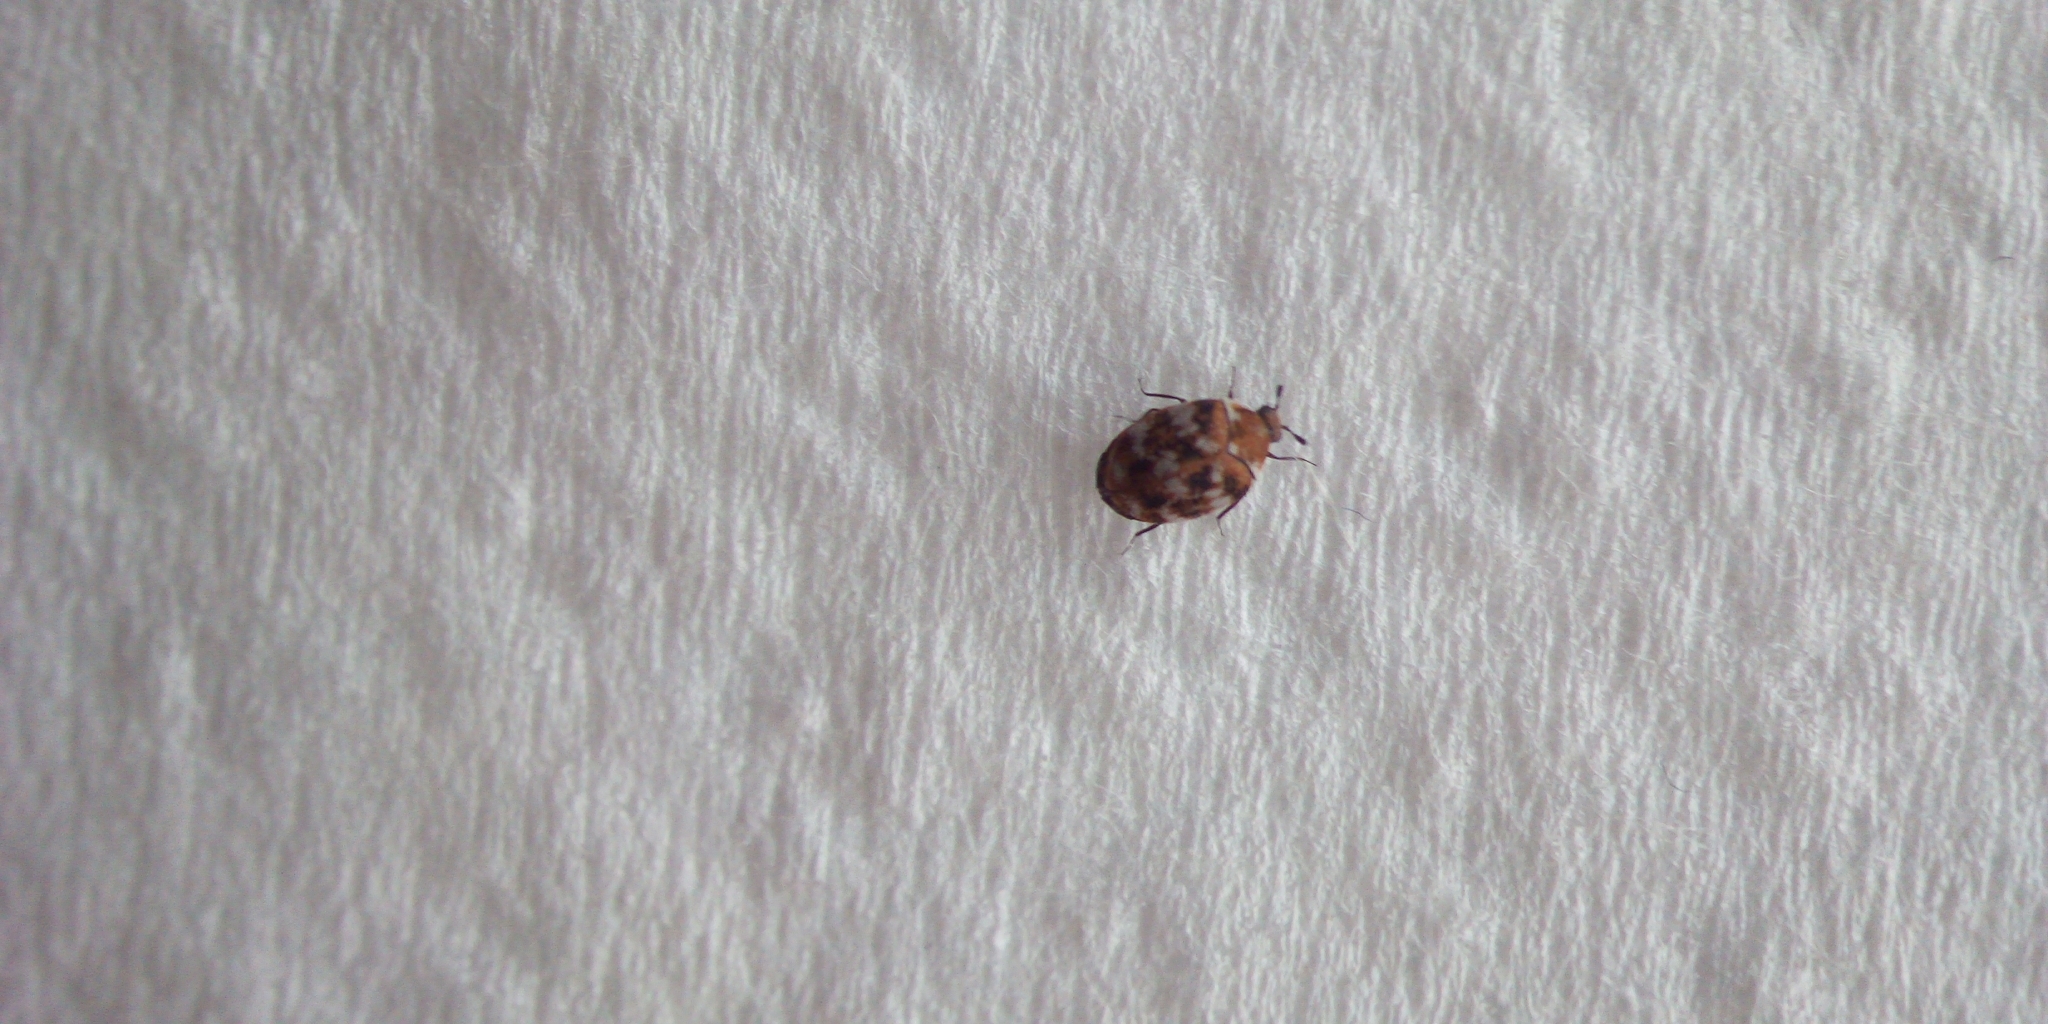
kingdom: Animalia
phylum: Arthropoda
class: Insecta
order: Coleoptera
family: Dermestidae
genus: Anthrenus
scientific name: Anthrenus verbasci
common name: Varied carpet beetle
